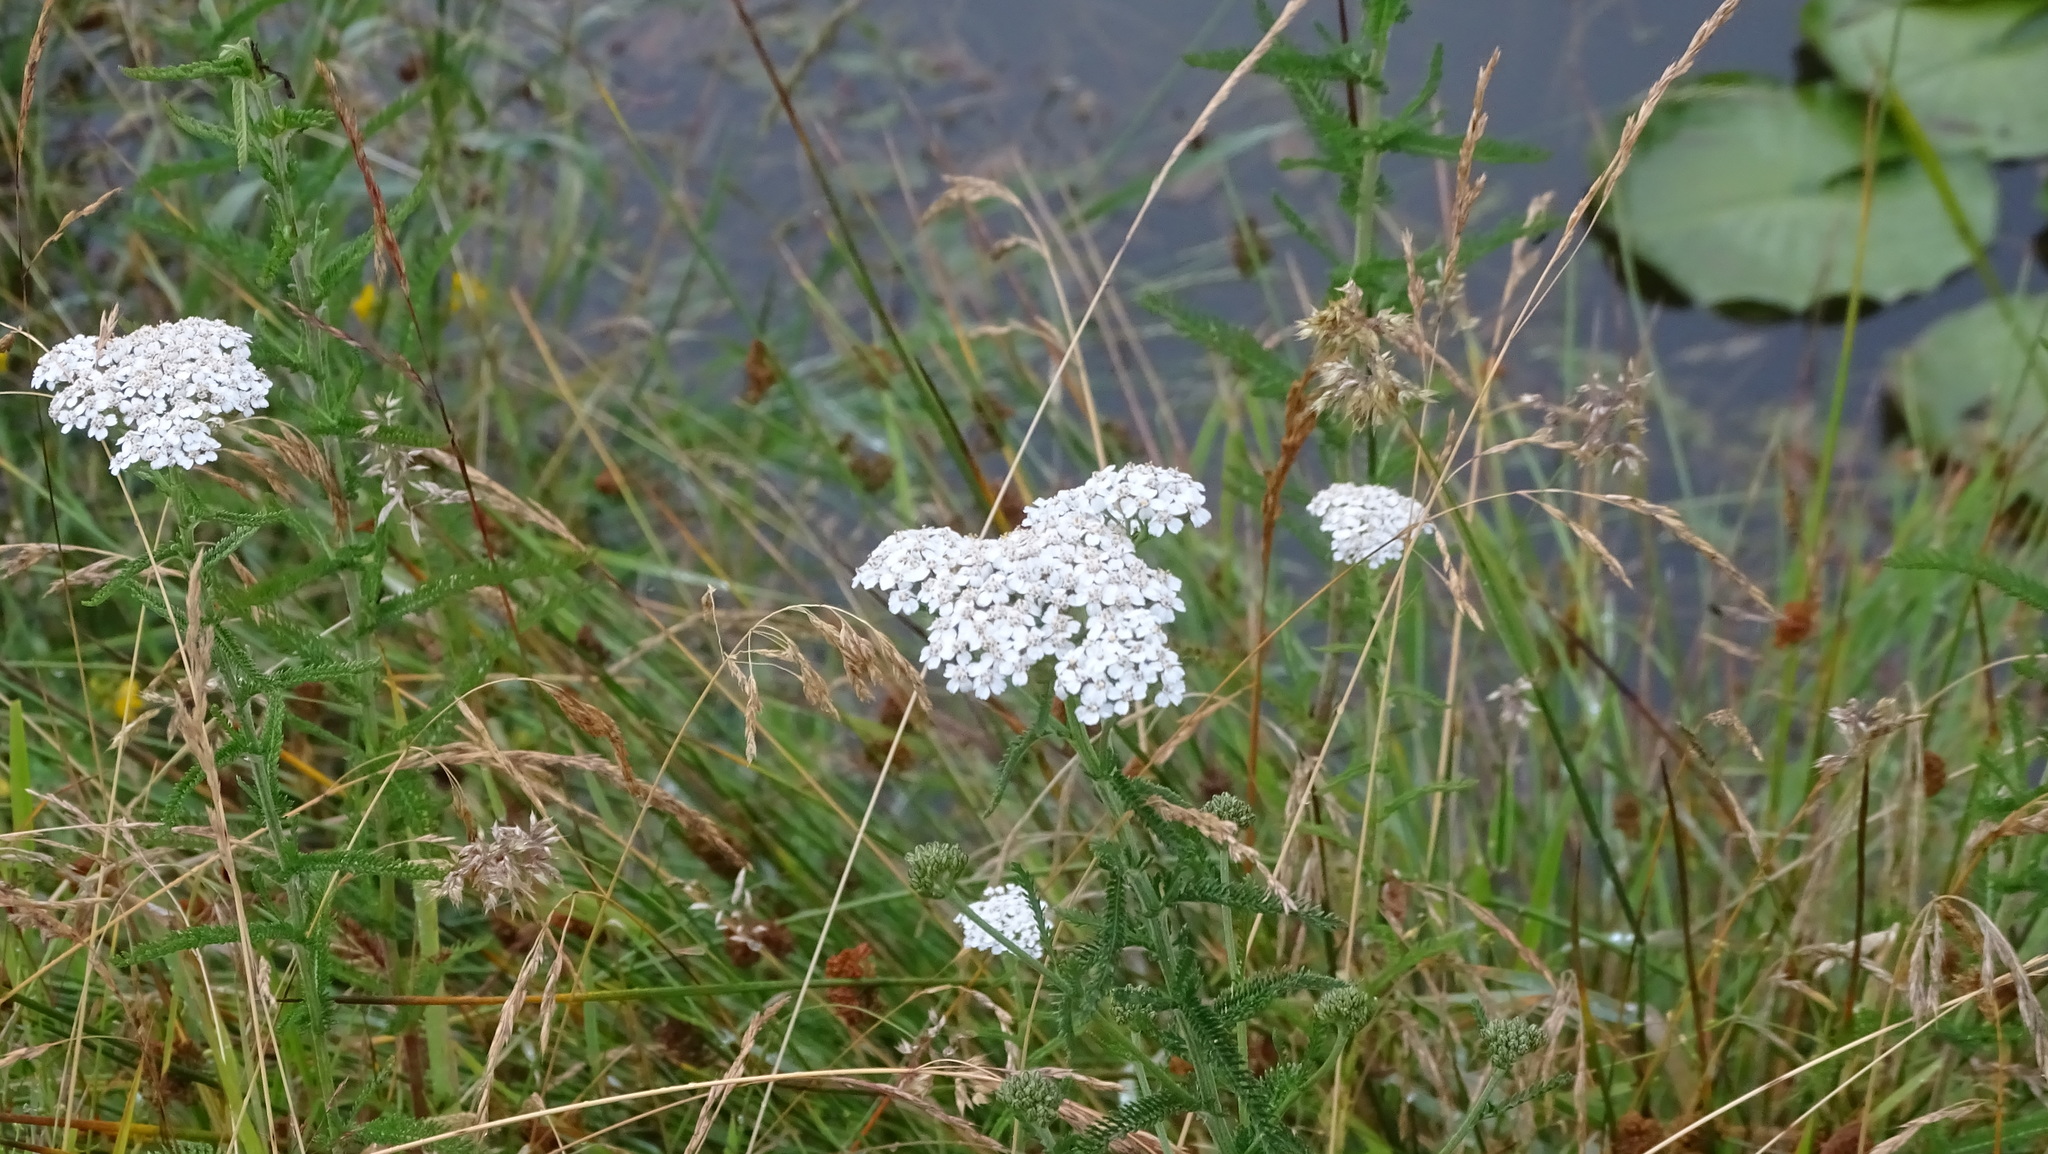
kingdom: Plantae
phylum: Tracheophyta
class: Magnoliopsida
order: Asterales
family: Asteraceae
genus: Achillea
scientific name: Achillea millefolium
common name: Yarrow
